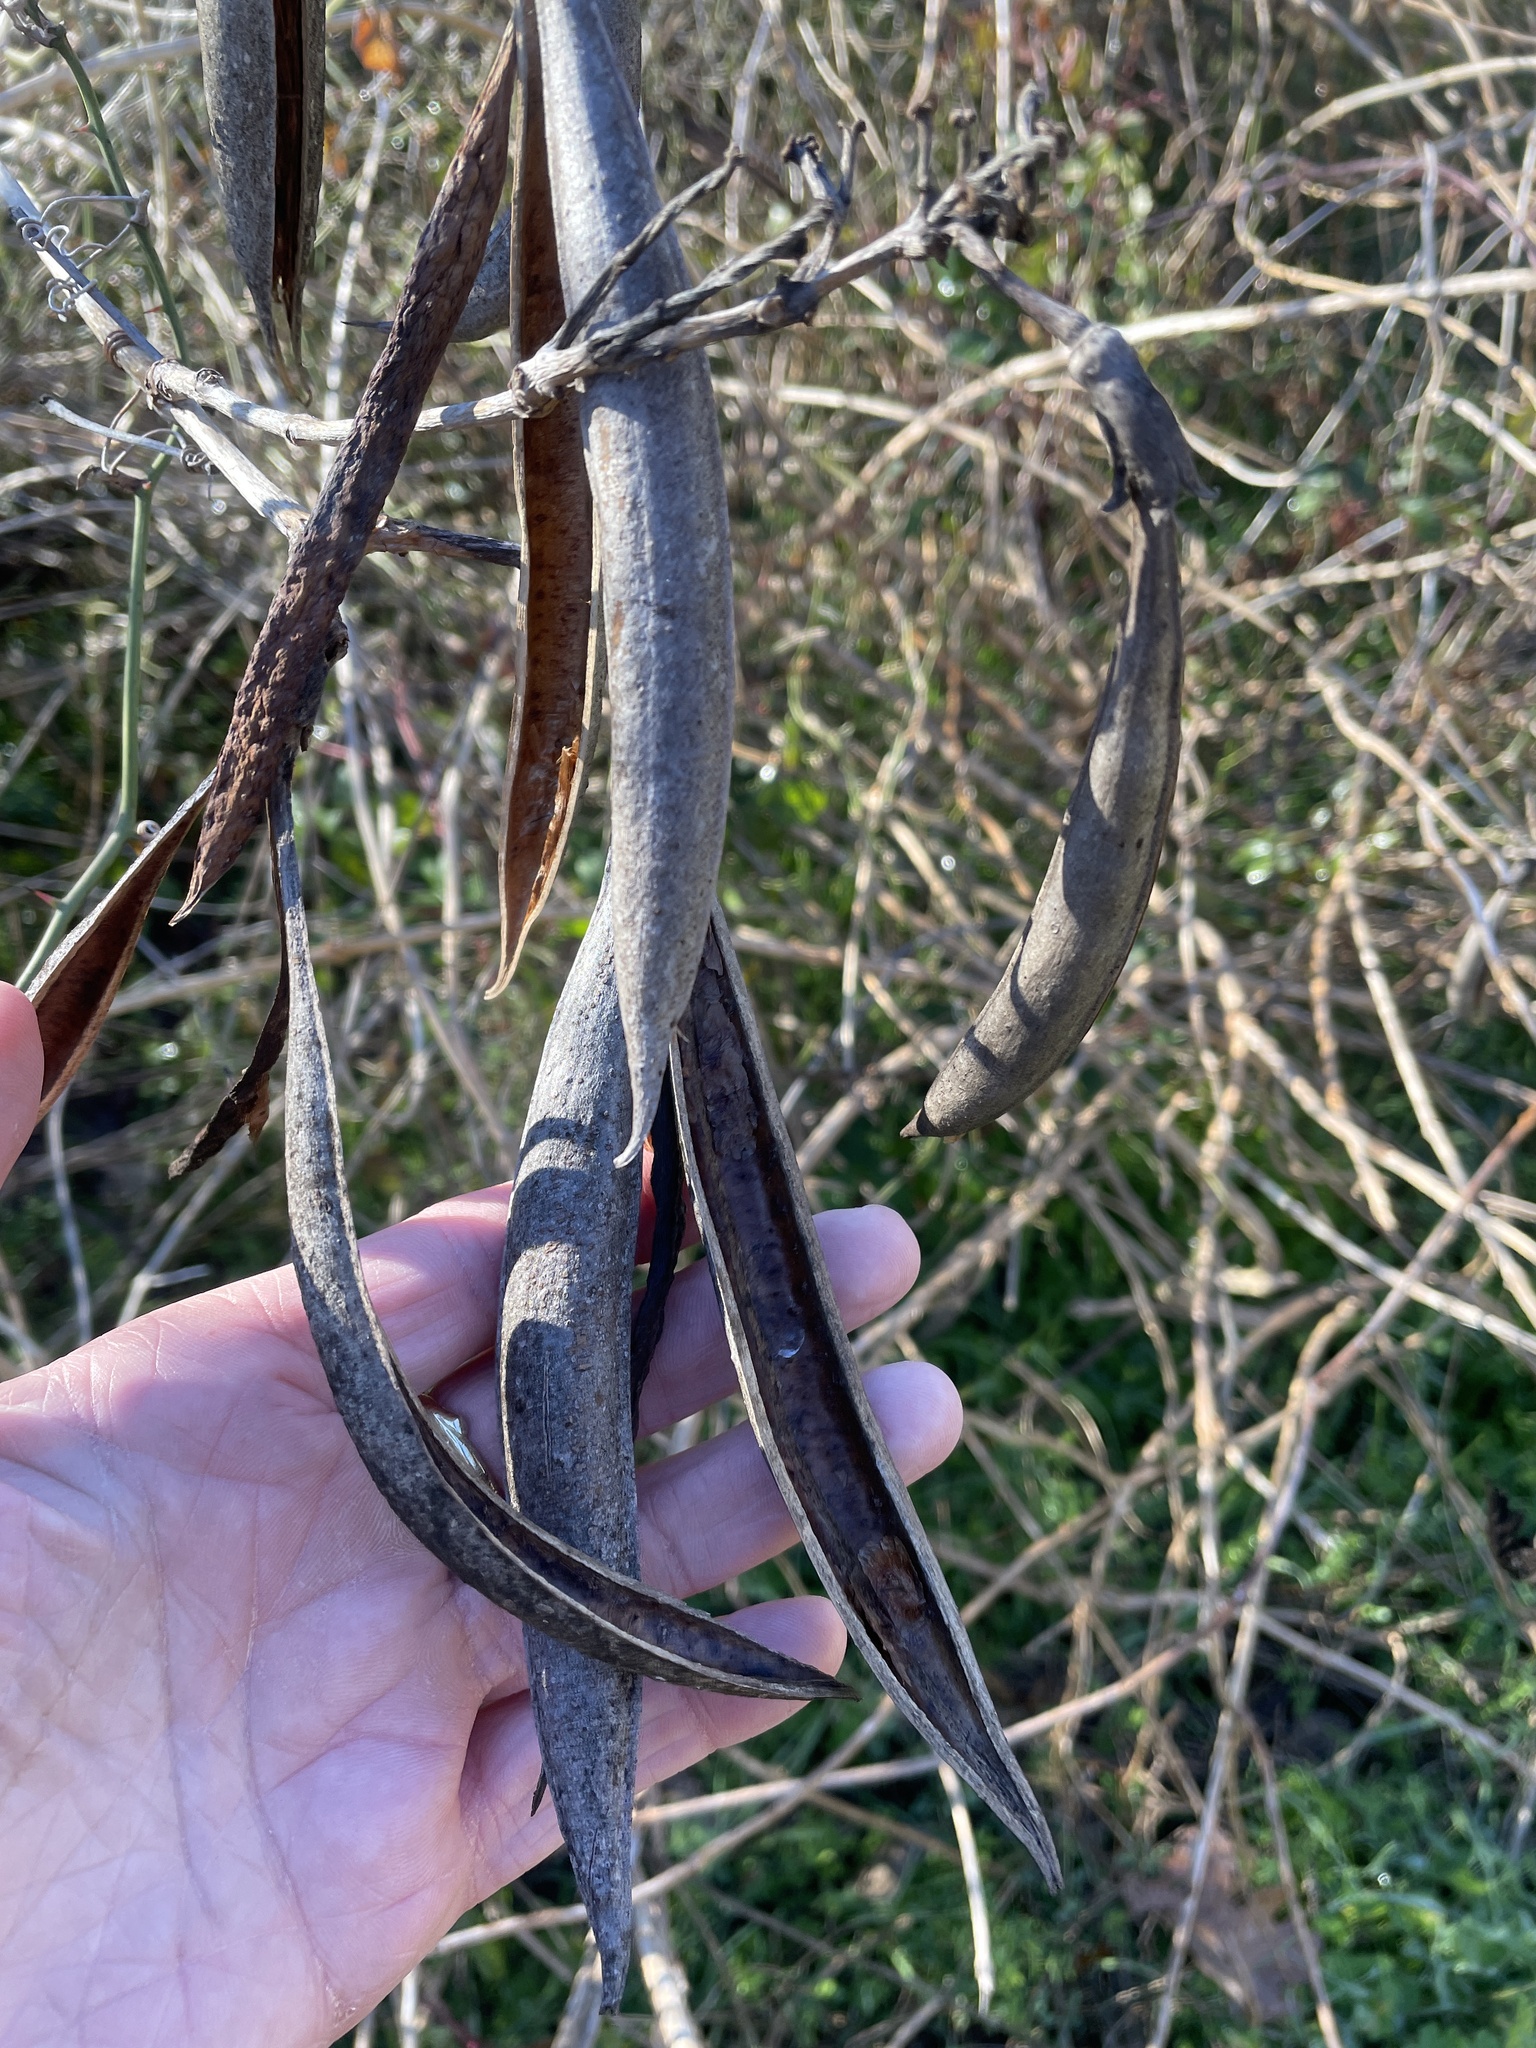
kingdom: Plantae
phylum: Tracheophyta
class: Magnoliopsida
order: Lamiales
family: Bignoniaceae
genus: Campsis
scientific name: Campsis radicans
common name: Trumpet-creeper
